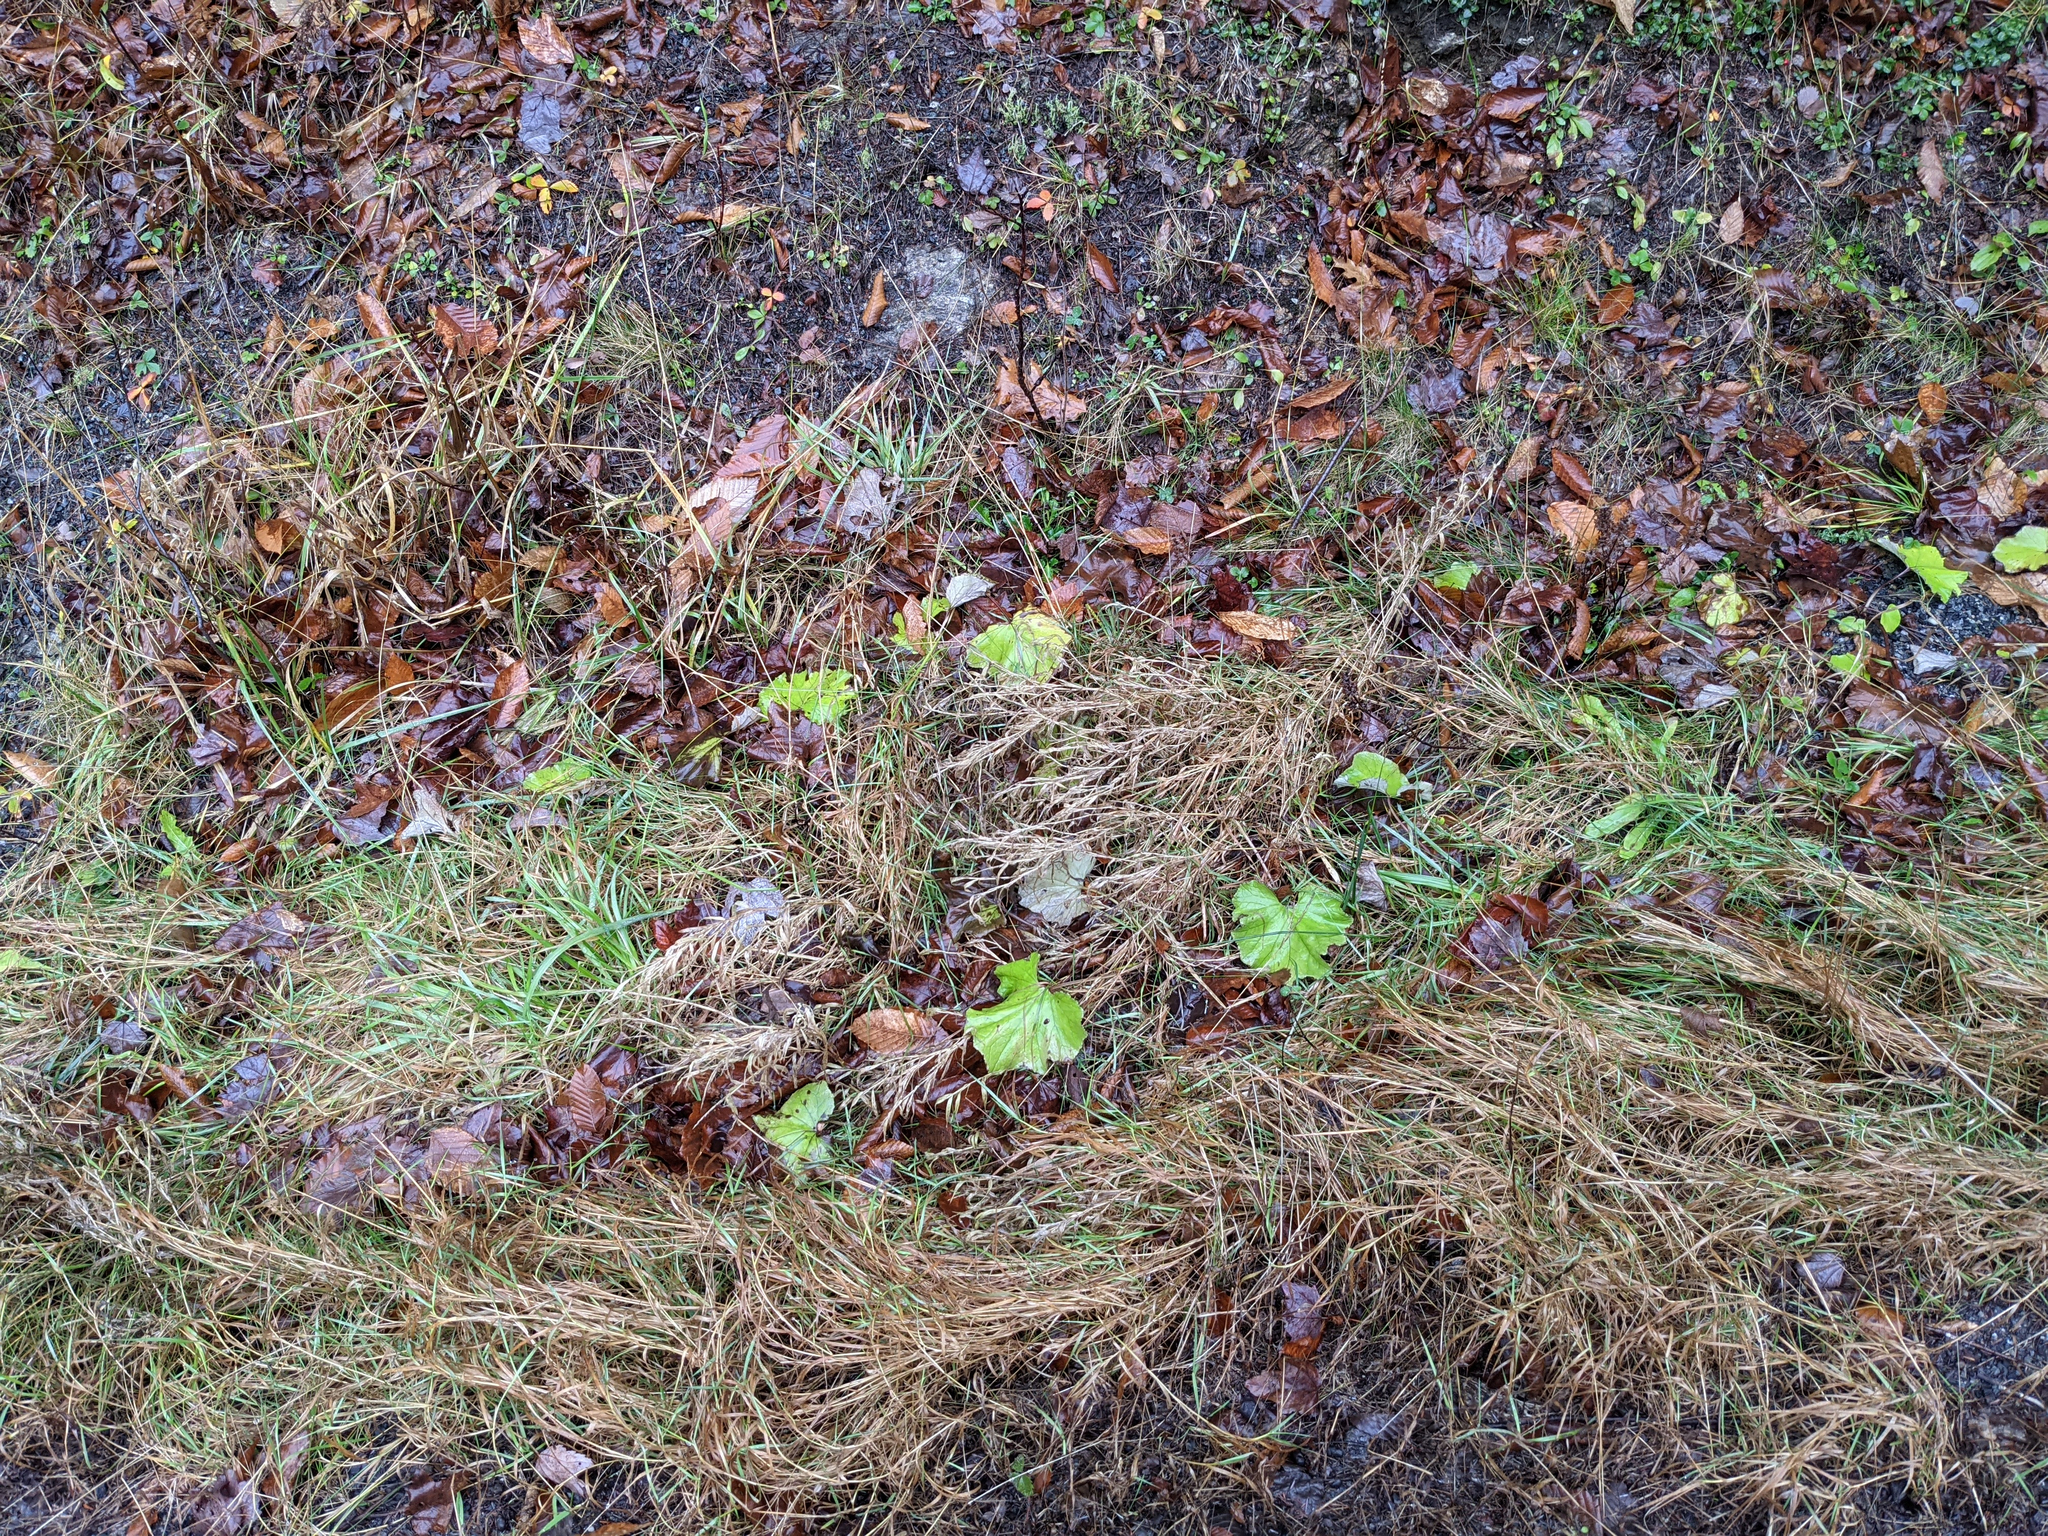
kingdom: Plantae
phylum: Tracheophyta
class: Magnoliopsida
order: Asterales
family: Asteraceae
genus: Tussilago
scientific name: Tussilago farfara
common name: Coltsfoot
